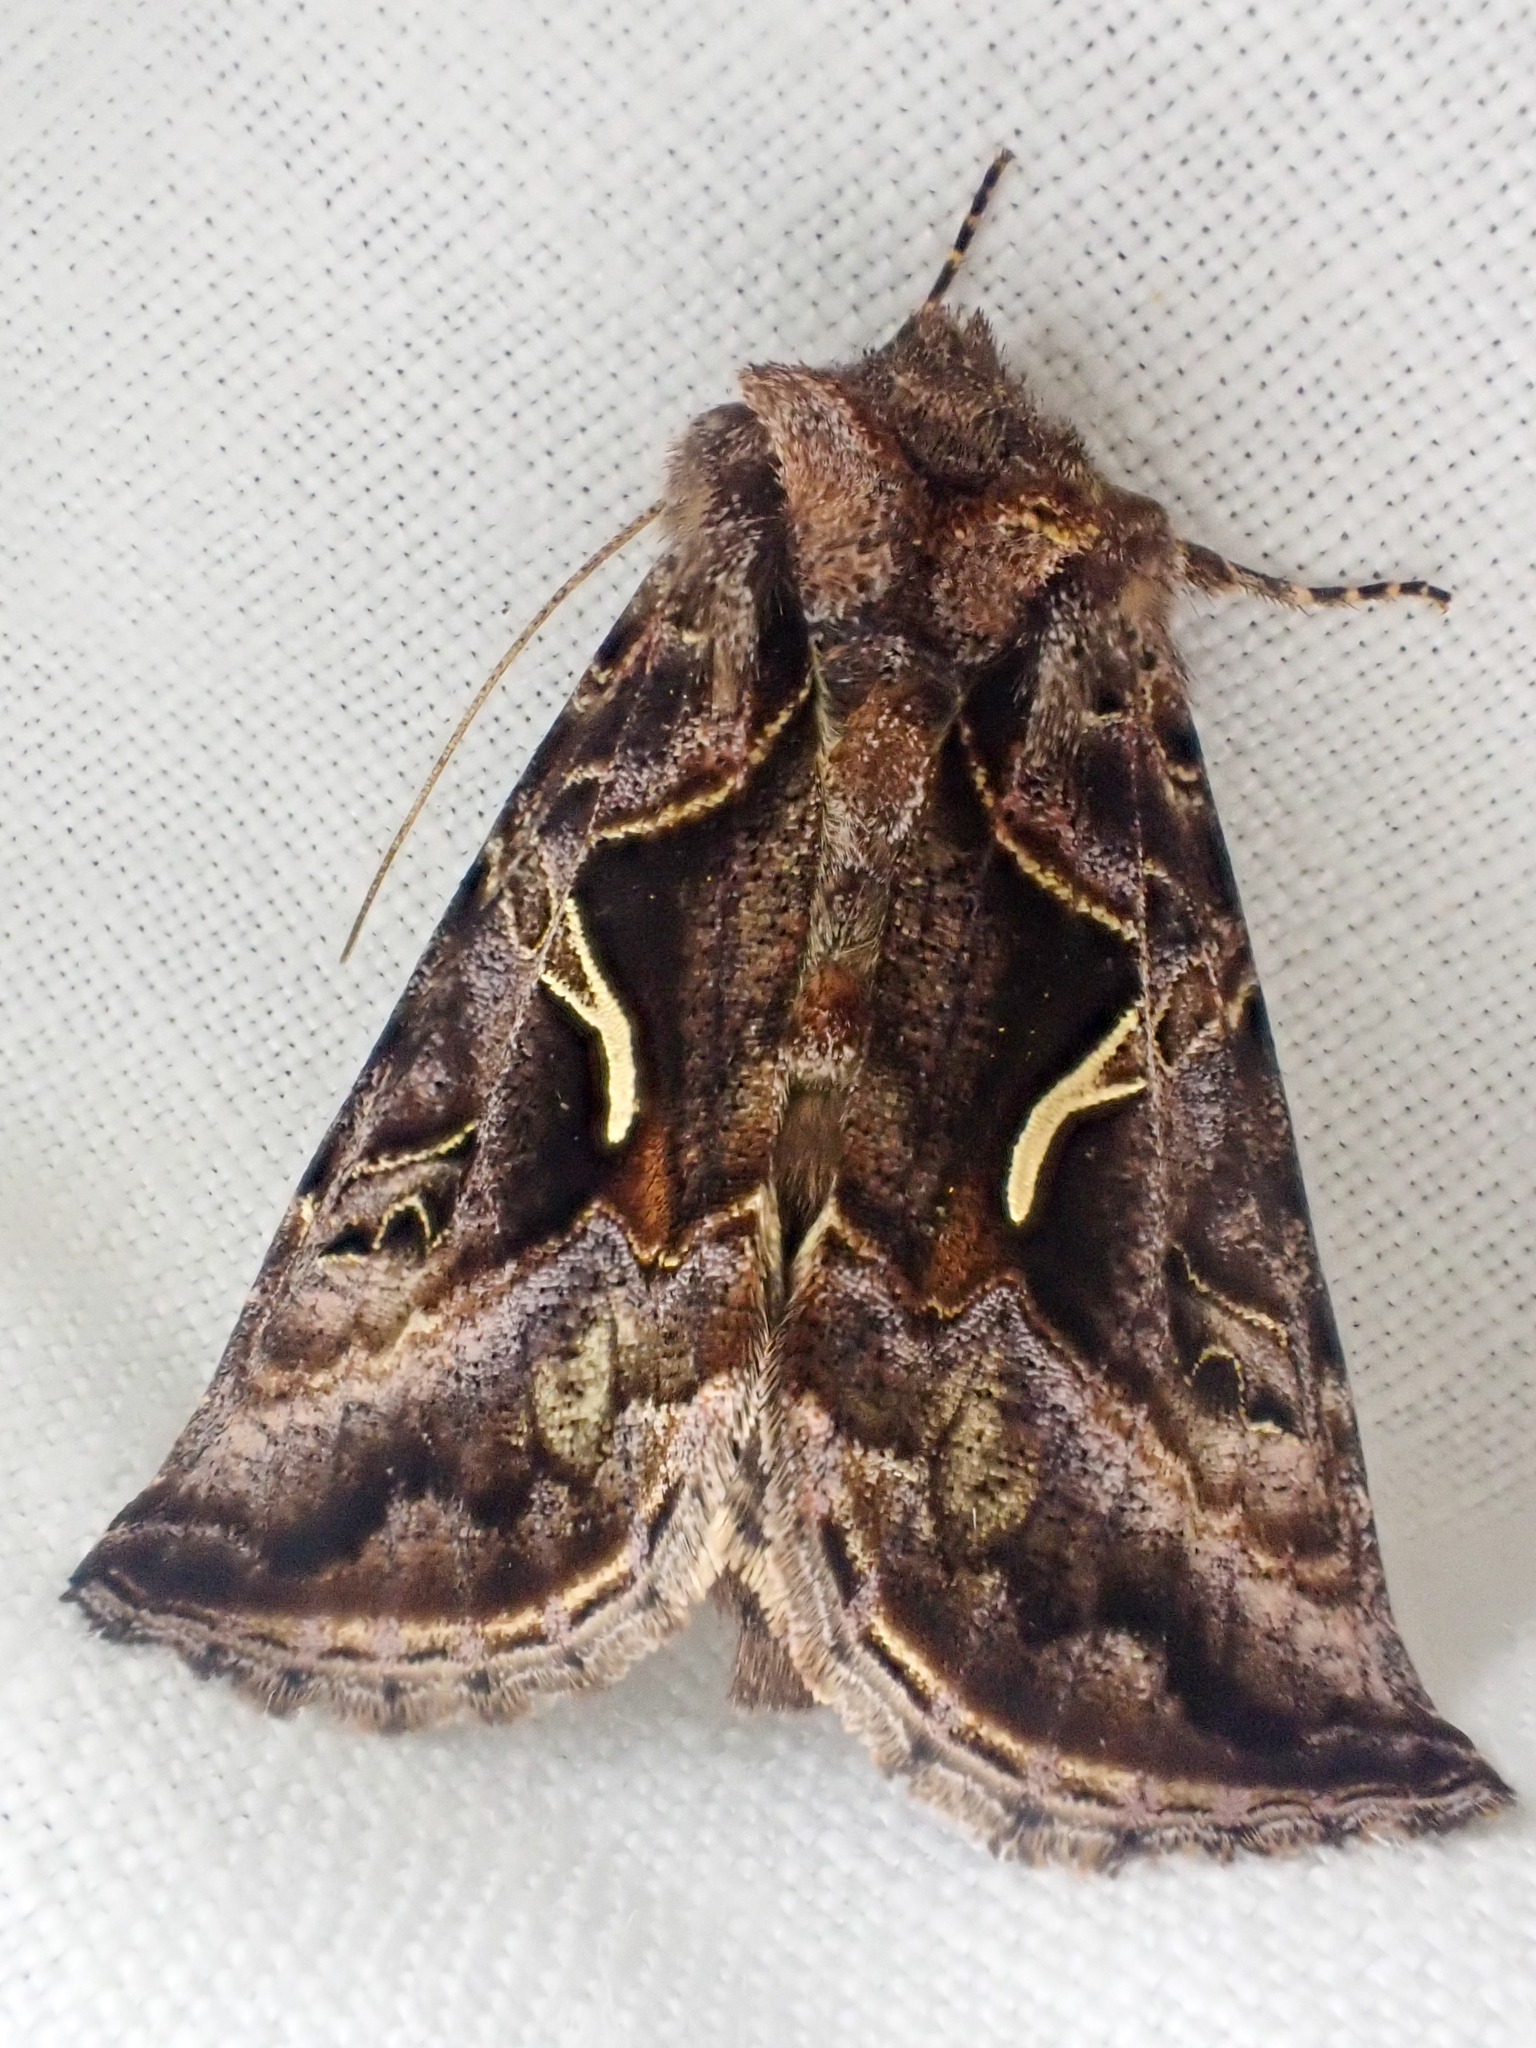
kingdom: Animalia
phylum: Arthropoda
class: Insecta
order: Lepidoptera
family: Noctuidae
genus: Autographa
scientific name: Autographa sansoni
